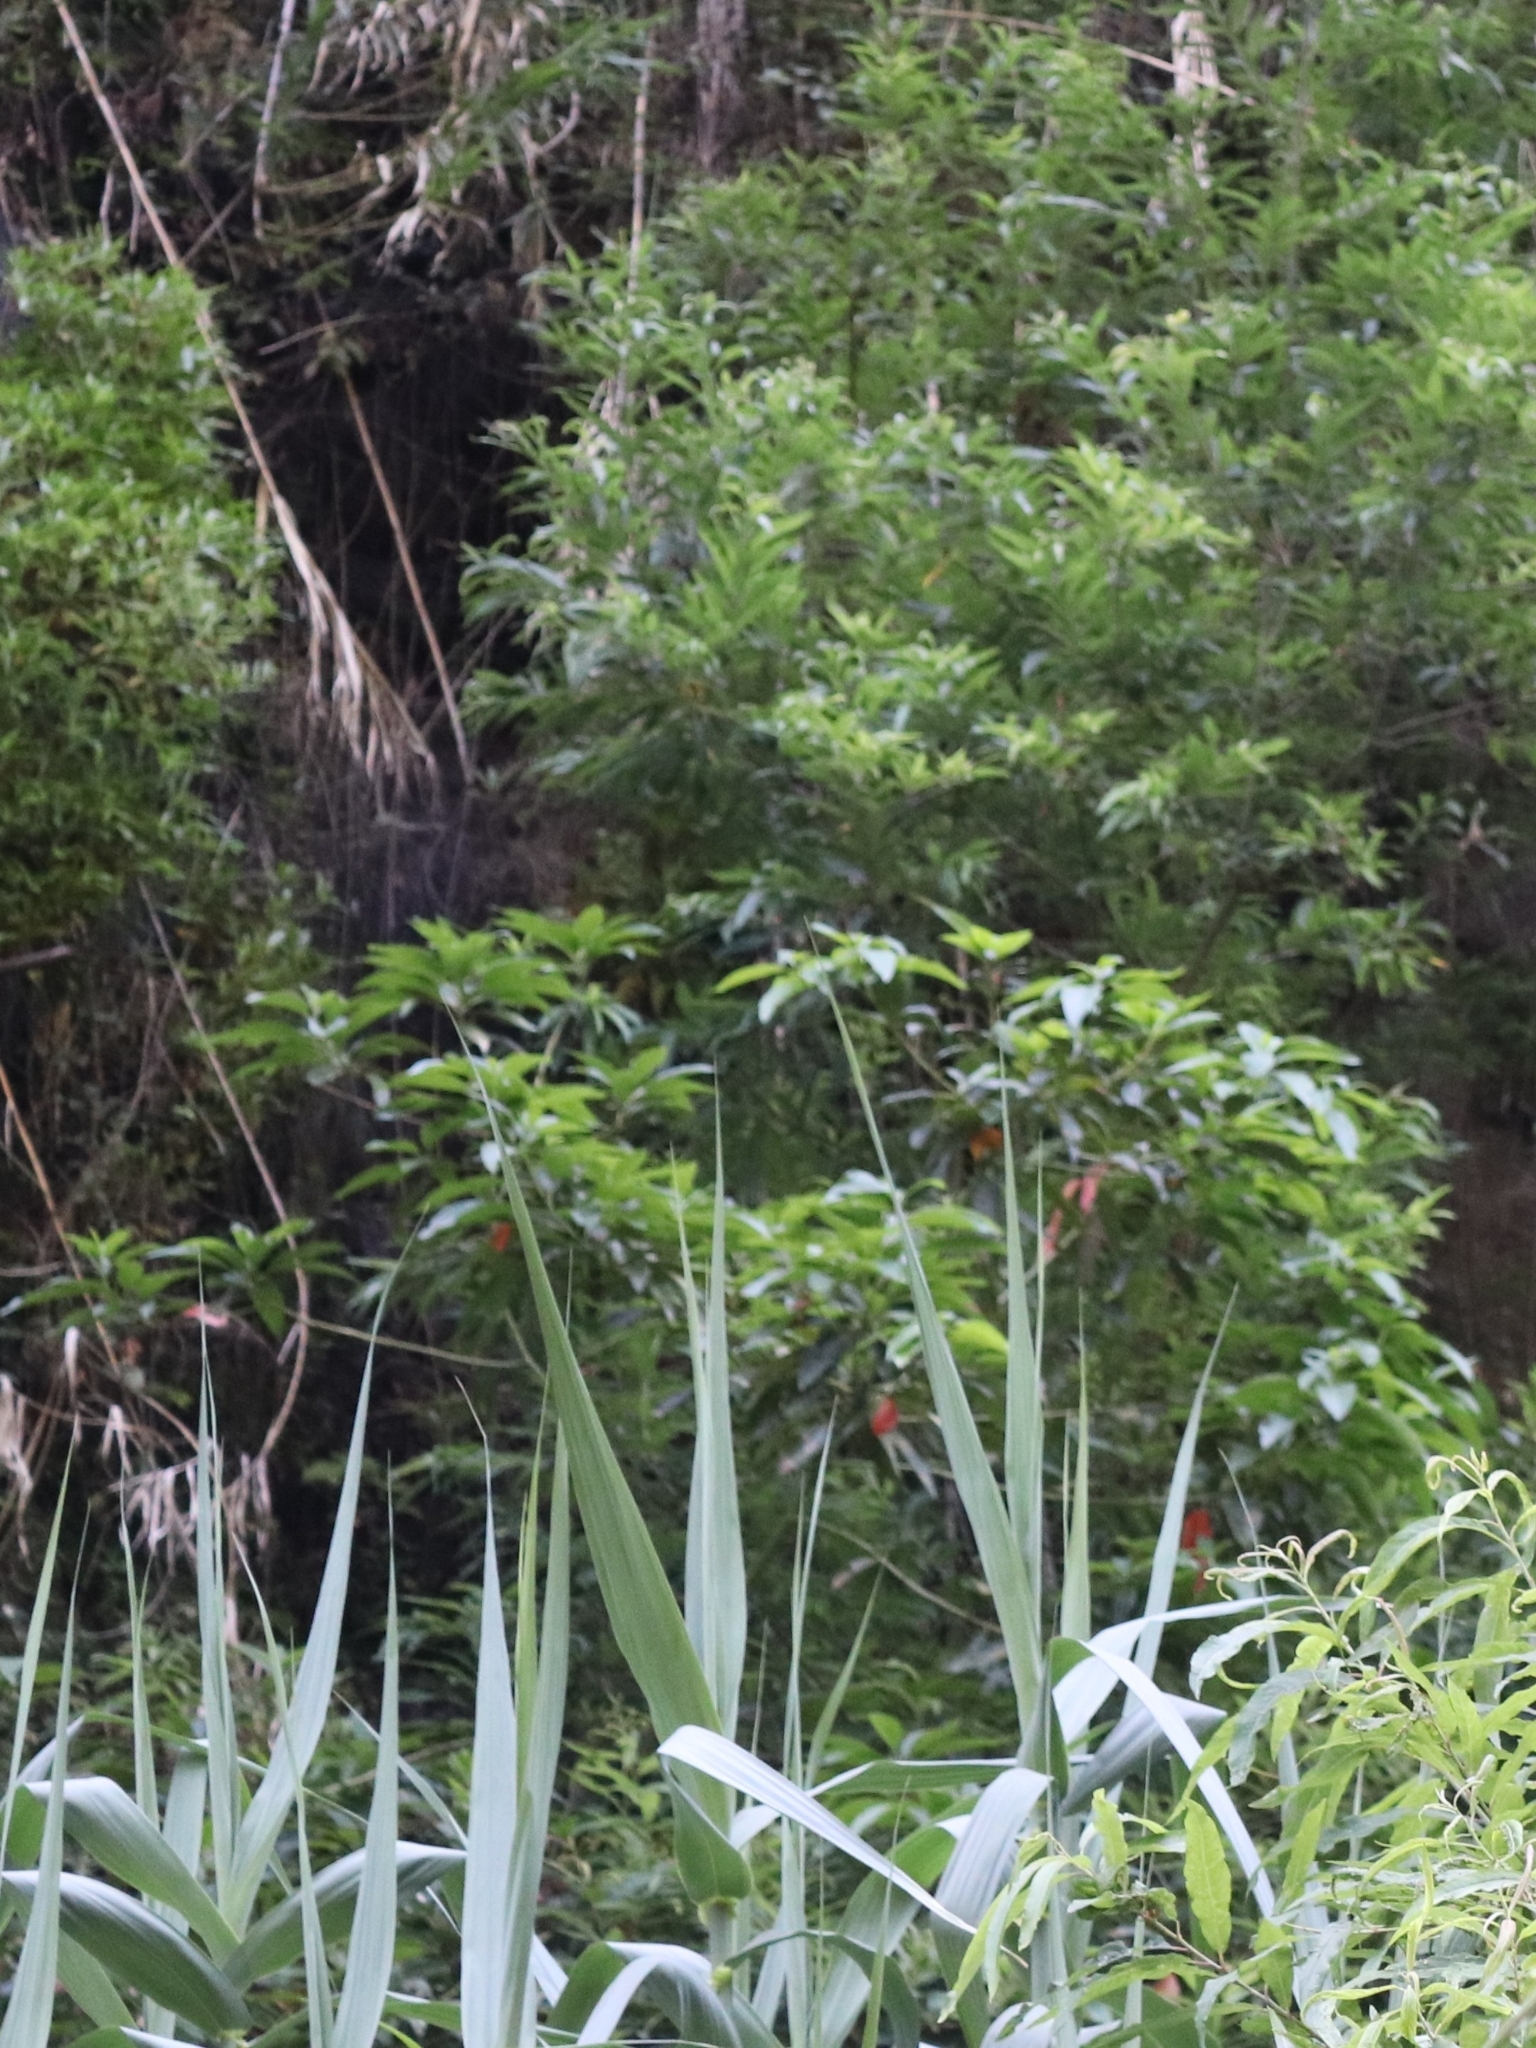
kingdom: Plantae
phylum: Tracheophyta
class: Magnoliopsida
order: Laurales
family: Lauraceae
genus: Persea
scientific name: Persea indica
